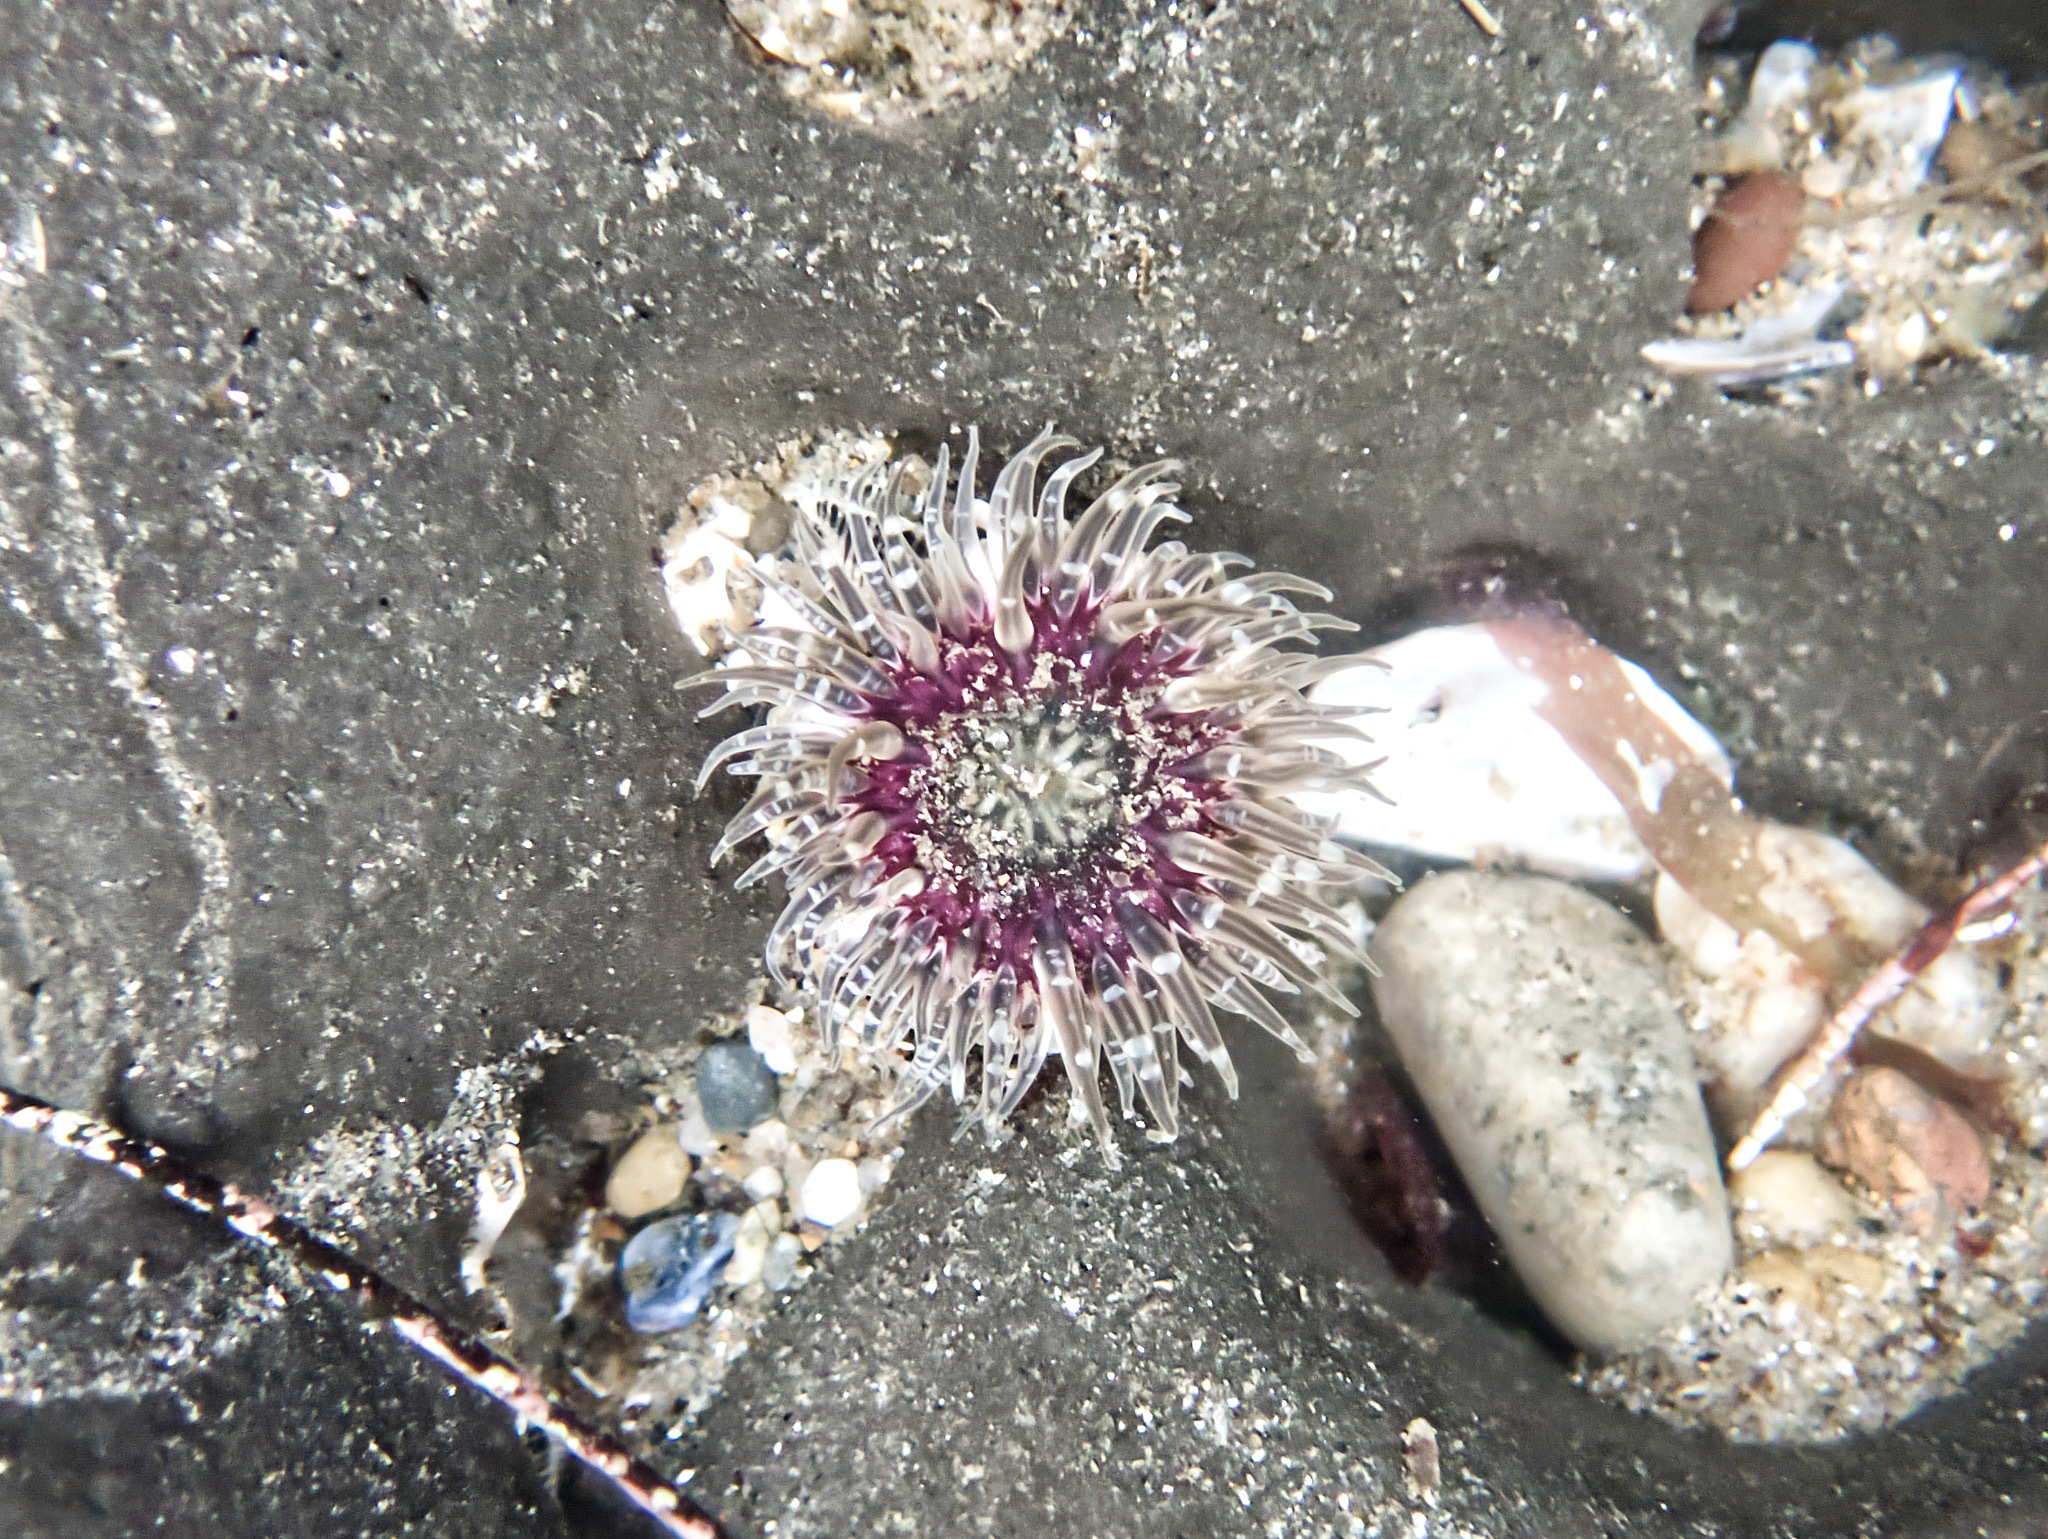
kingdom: Animalia
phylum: Cnidaria
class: Anthozoa
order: Actiniaria
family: Actiniidae
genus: Anthopleura
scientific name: Anthopleura artemisia
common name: Buried sea anemone
